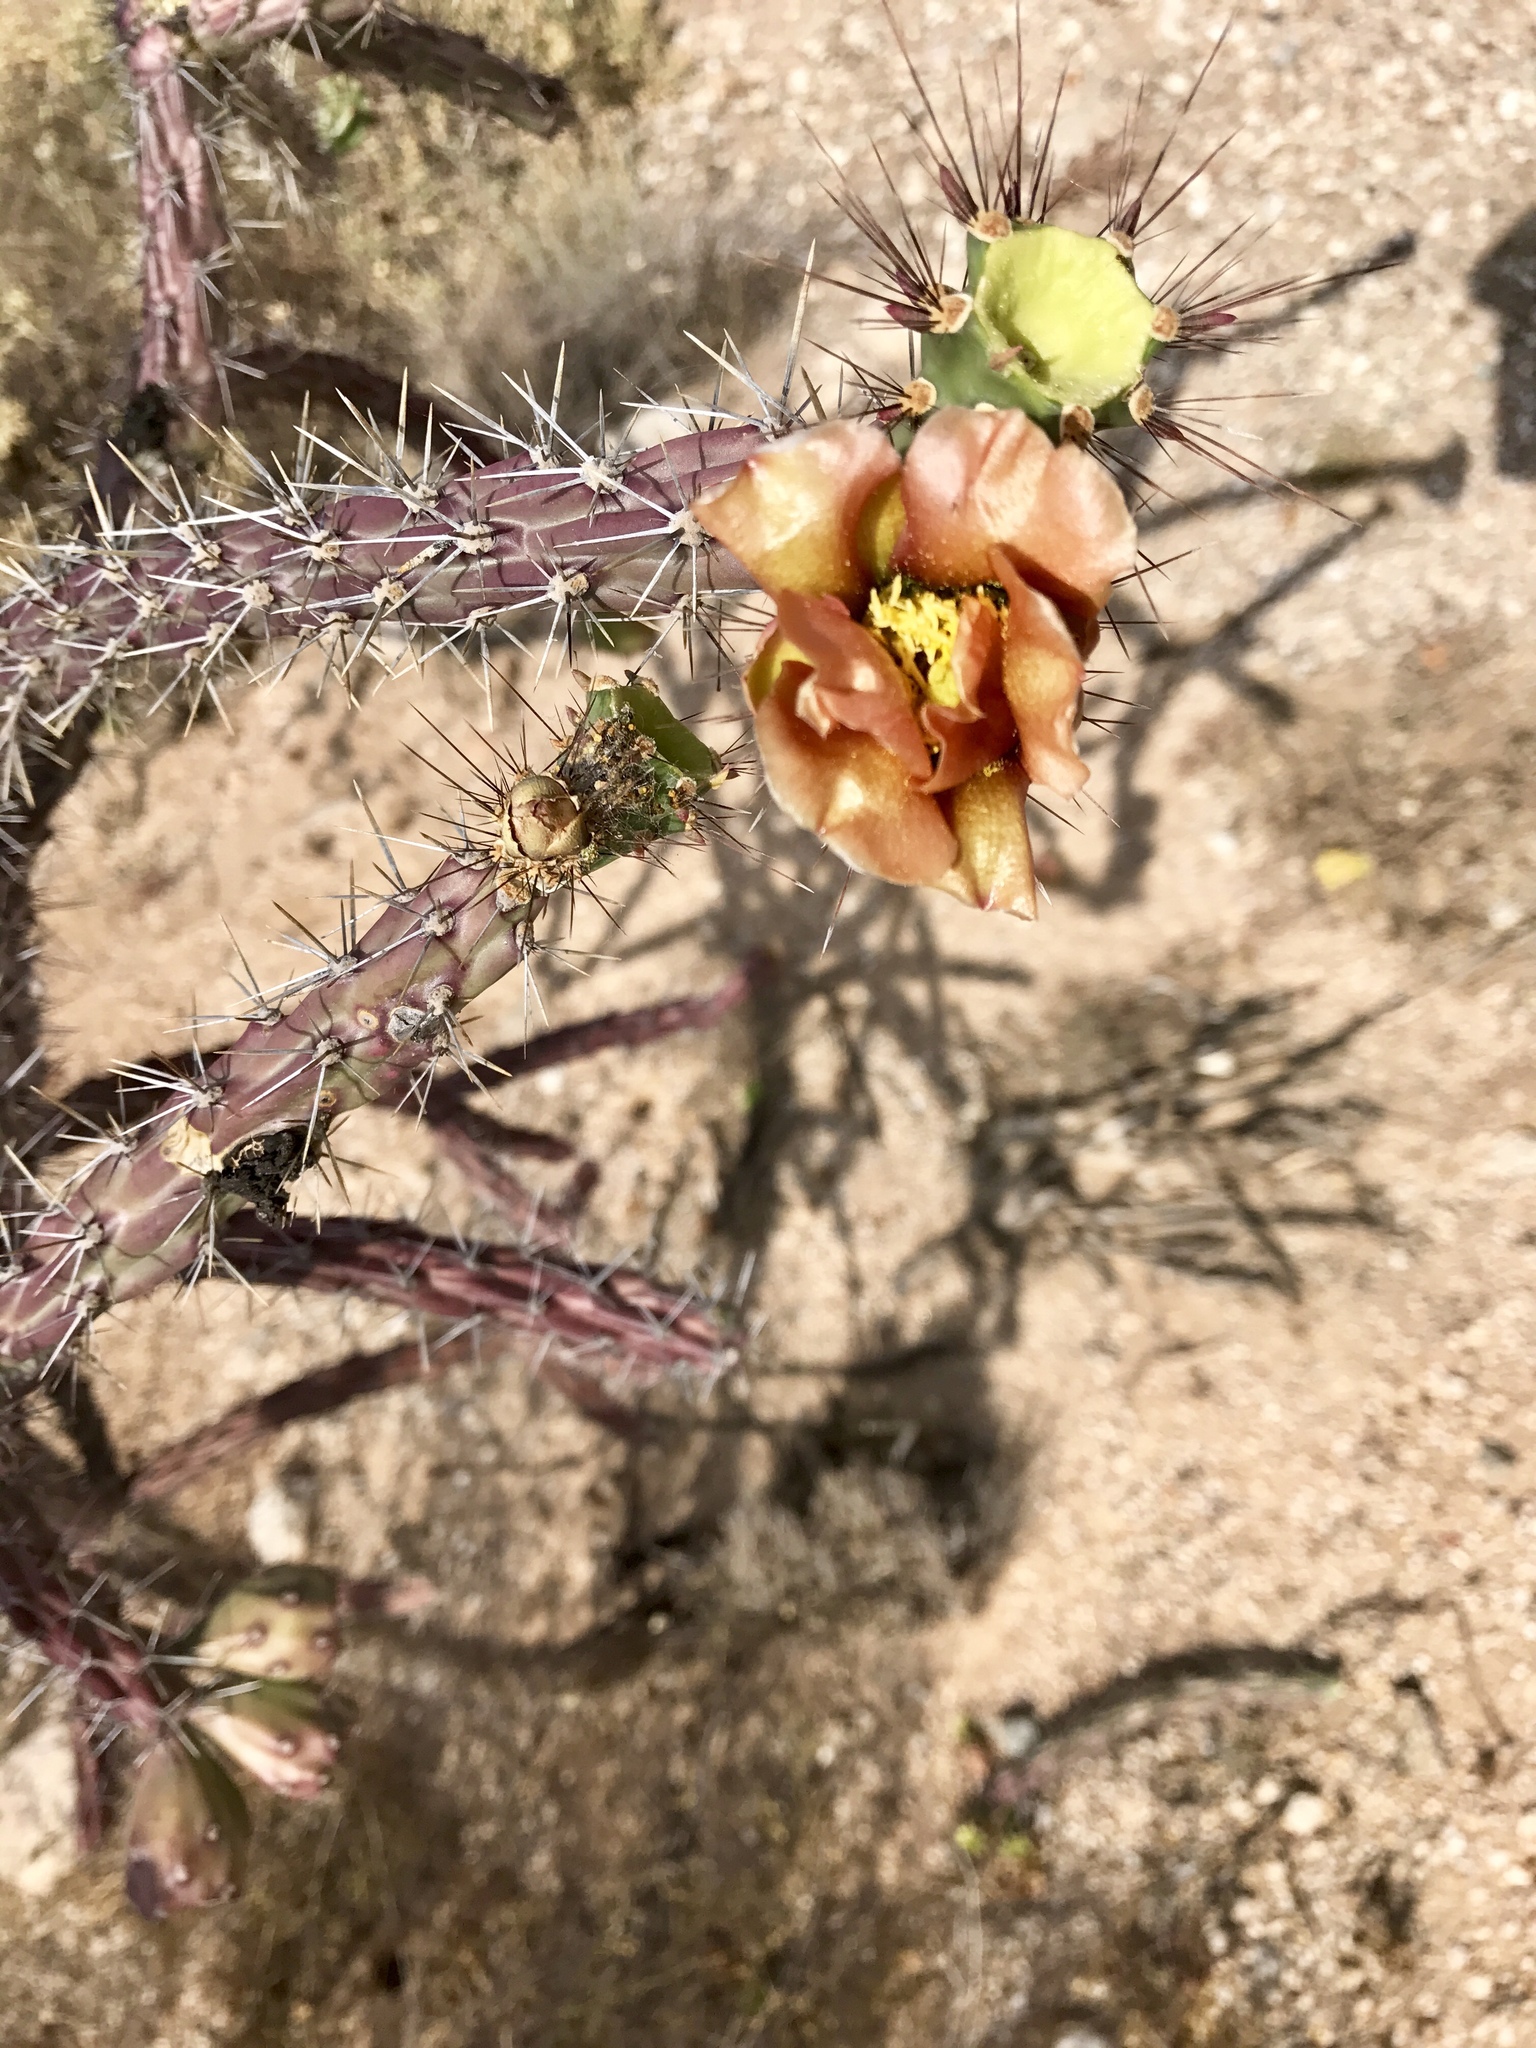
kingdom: Plantae
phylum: Tracheophyta
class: Magnoliopsida
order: Caryophyllales
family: Cactaceae
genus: Cylindropuntia
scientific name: Cylindropuntia thurberi
